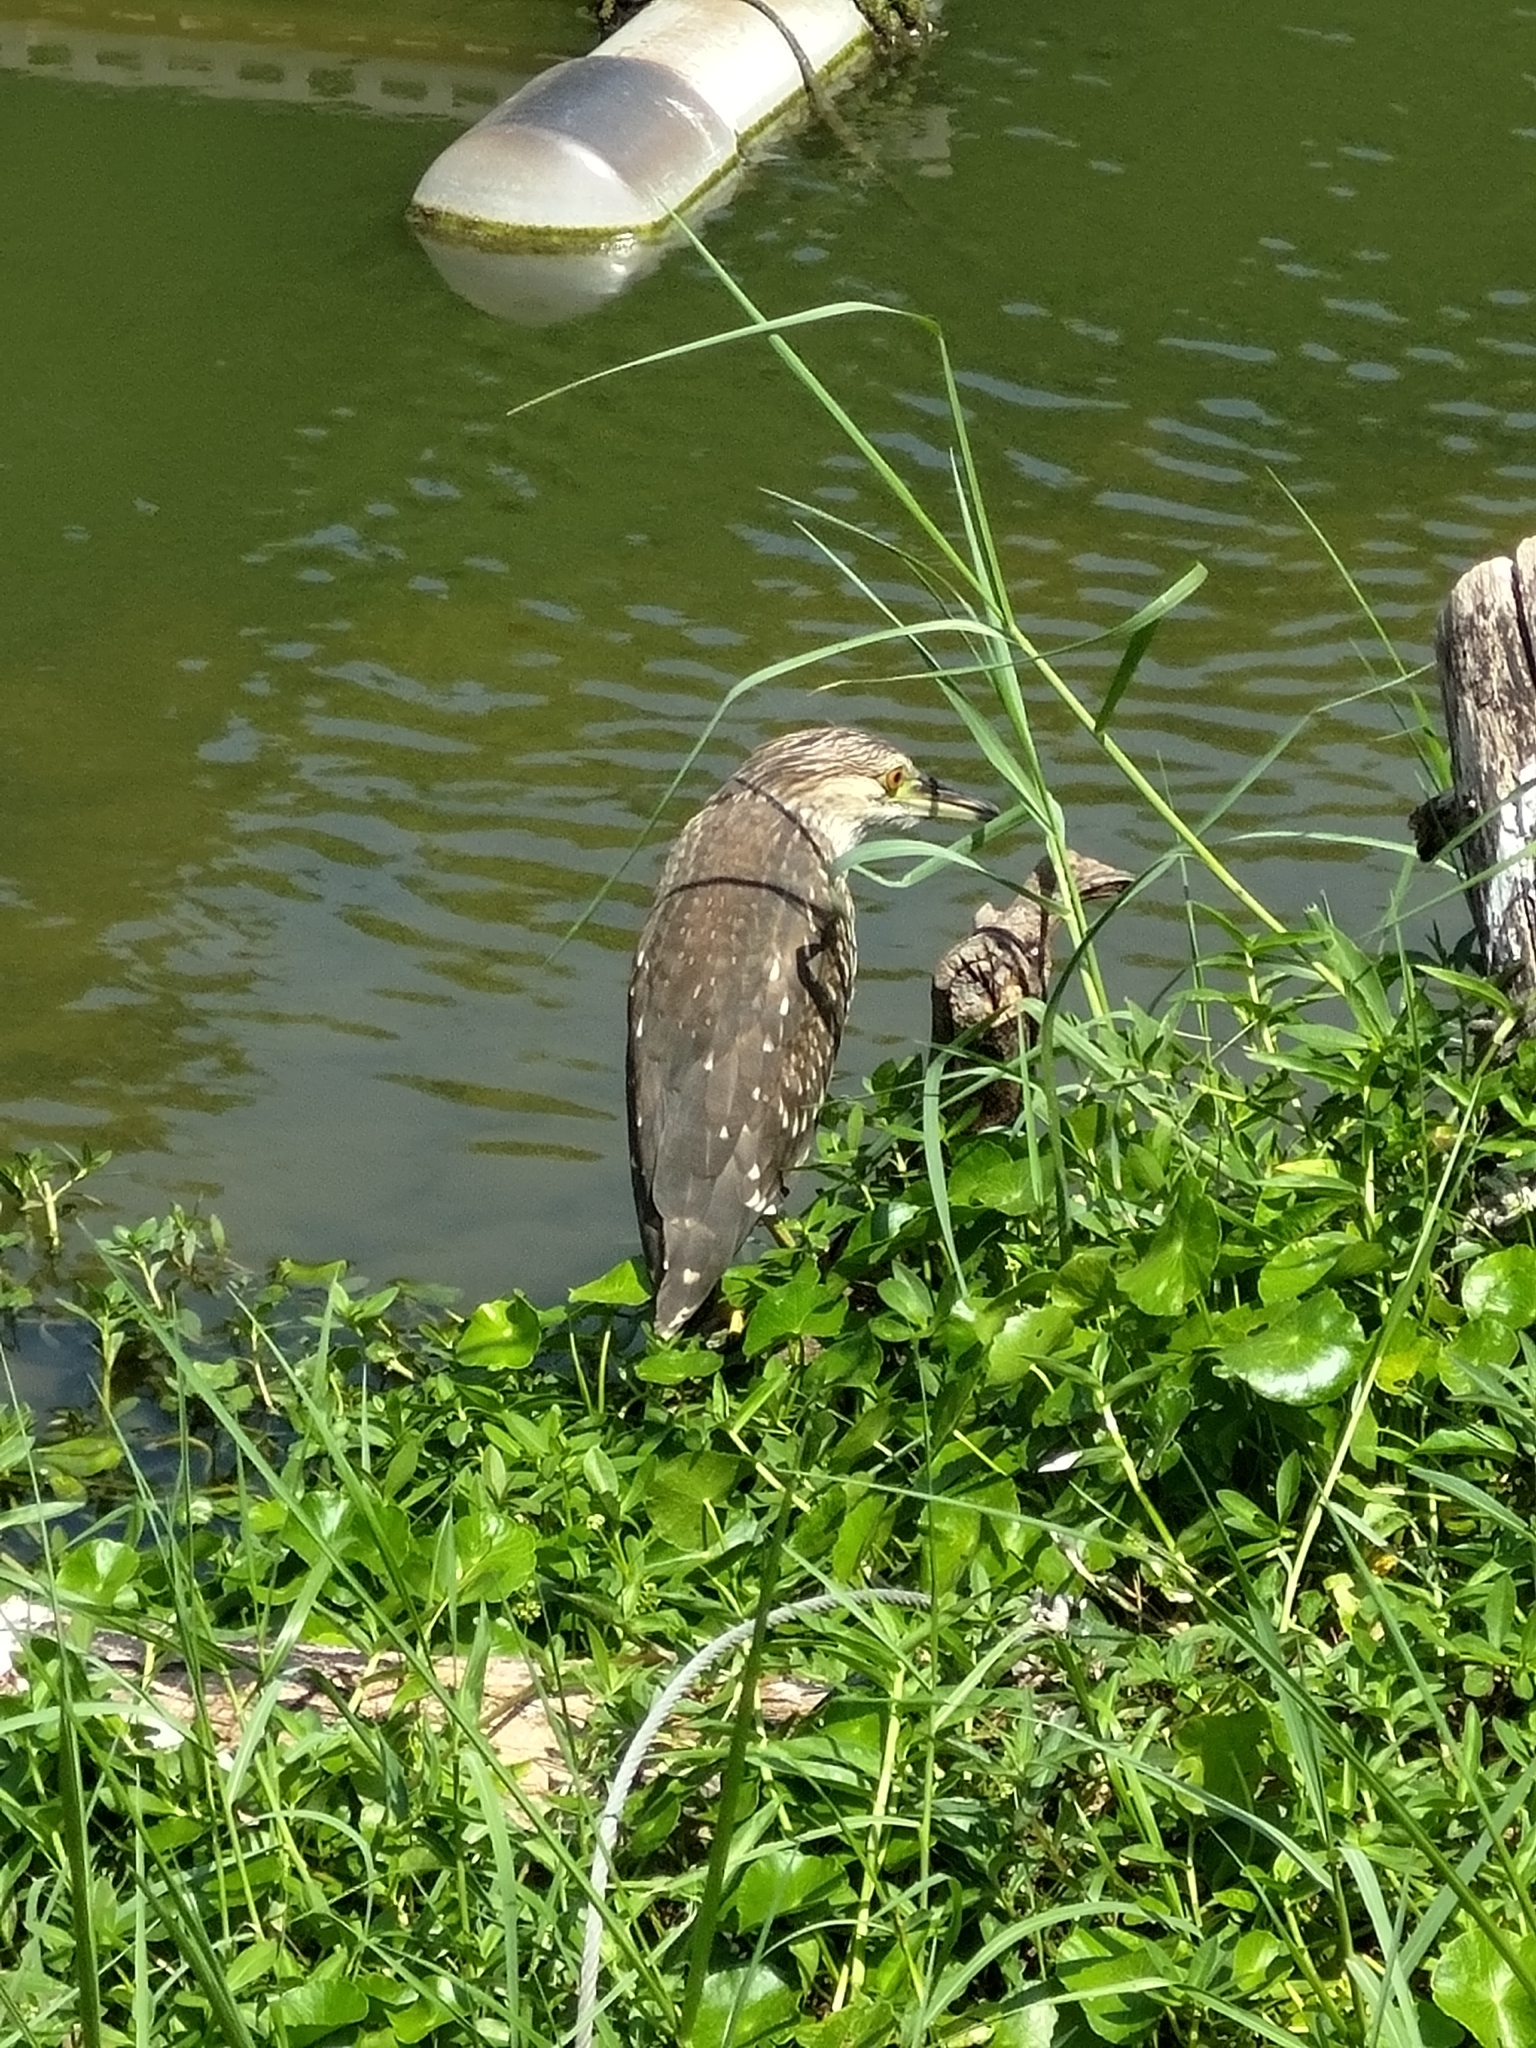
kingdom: Animalia
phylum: Chordata
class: Aves
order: Pelecaniformes
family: Ardeidae
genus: Nycticorax
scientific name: Nycticorax nycticorax
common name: Black-crowned night heron
